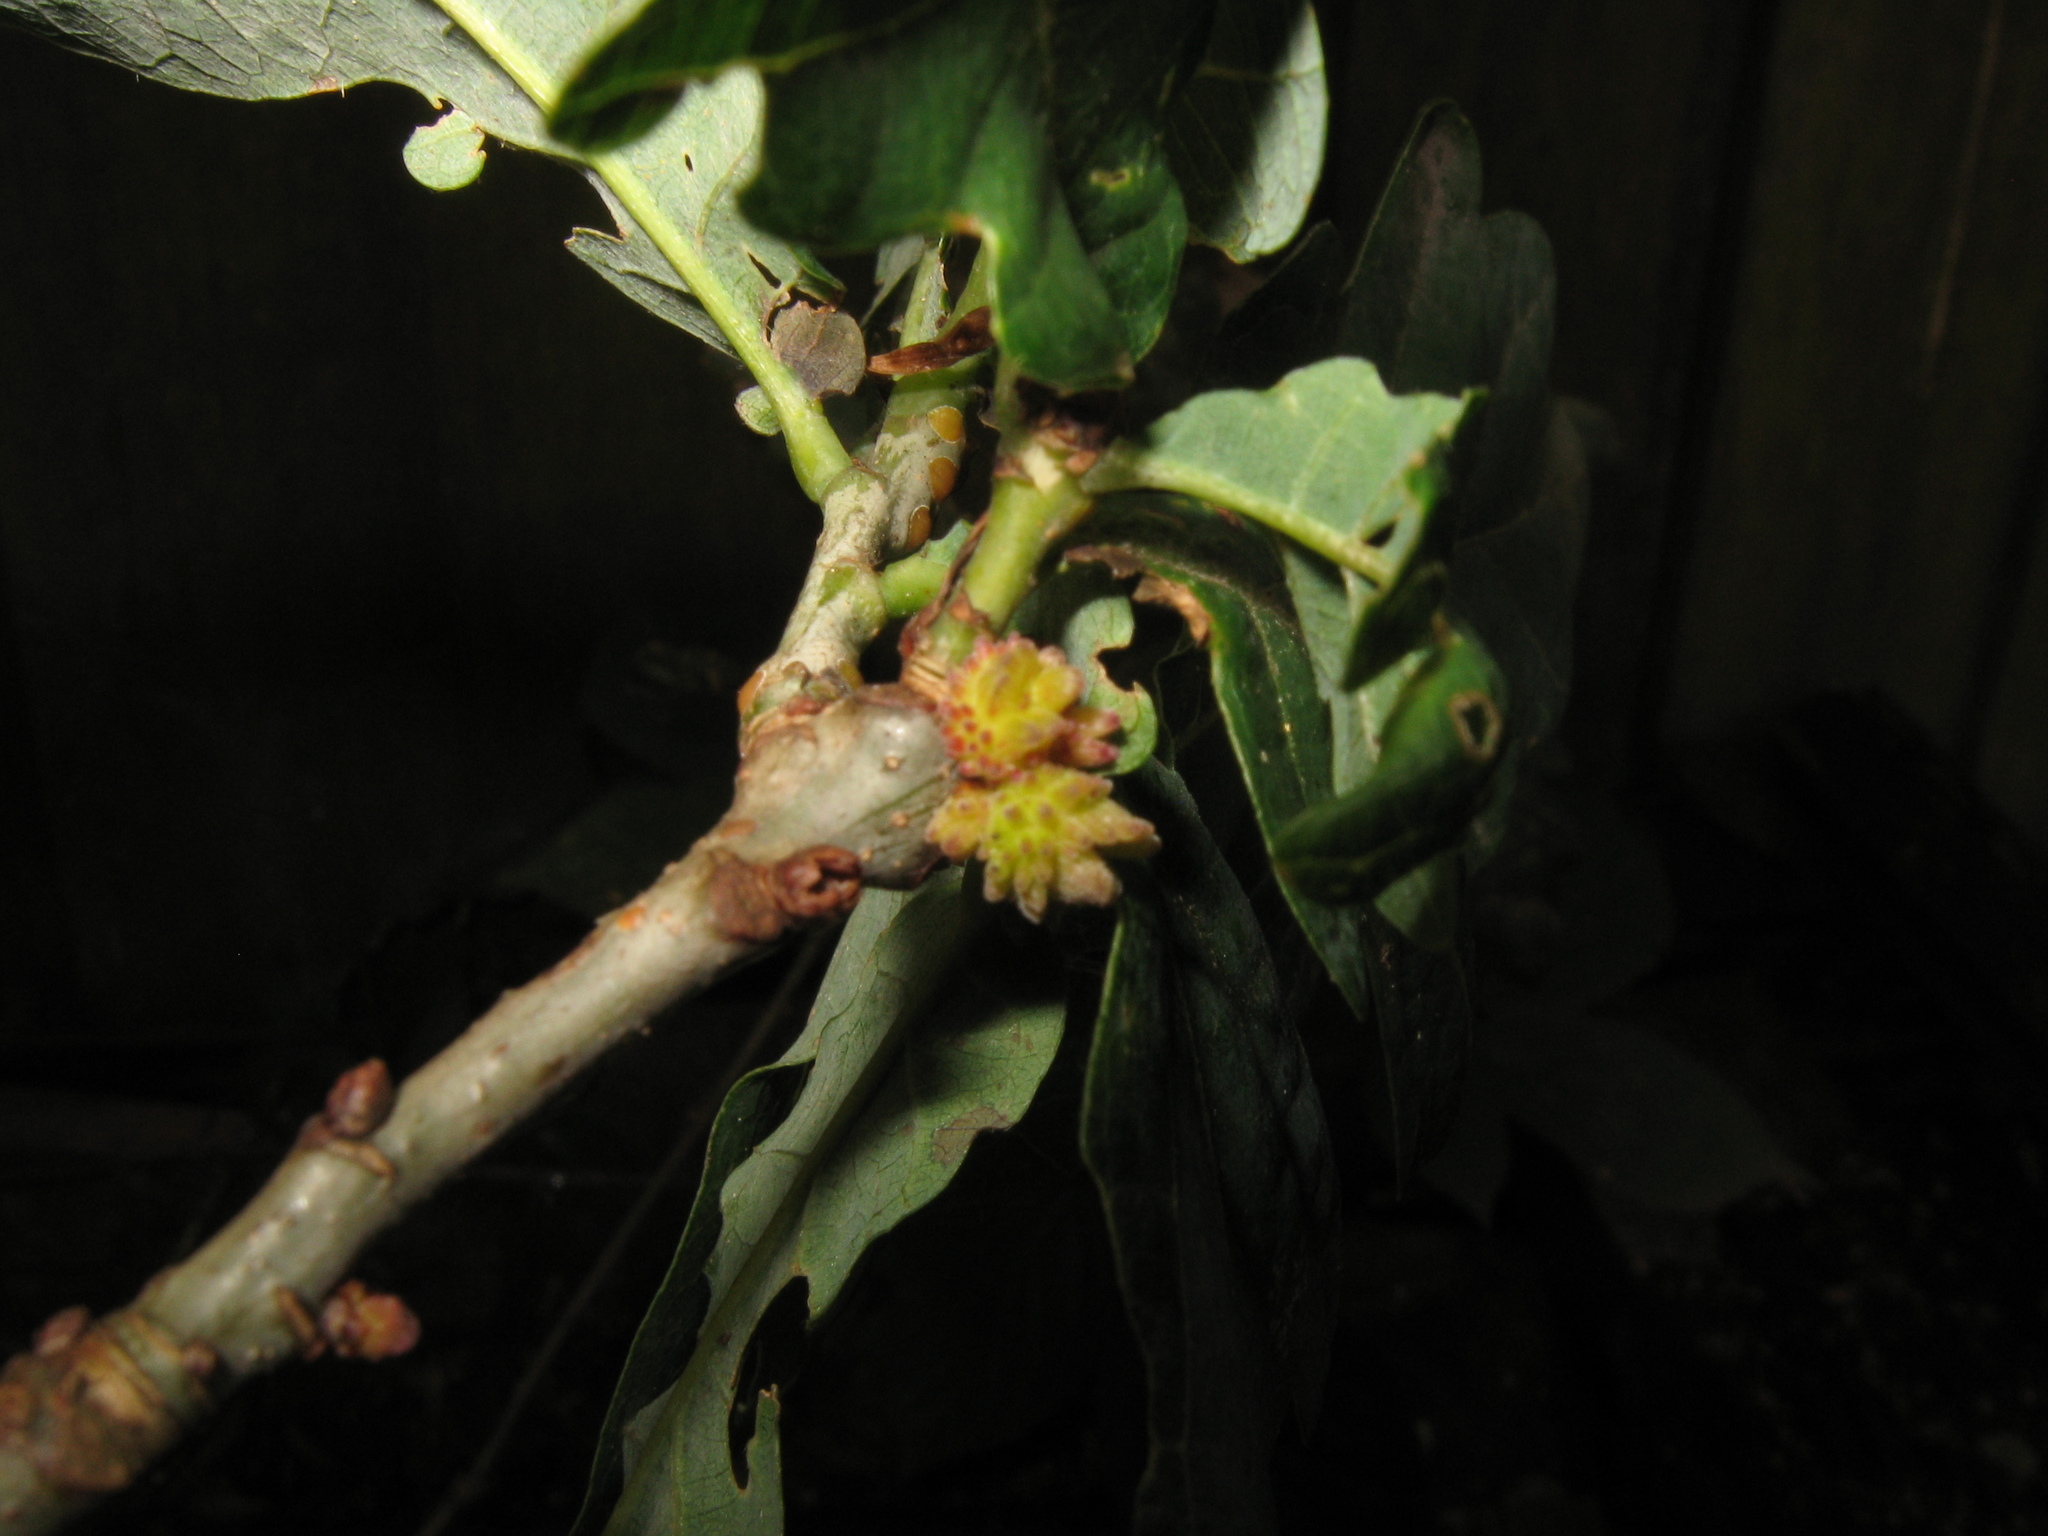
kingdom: Animalia
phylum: Arthropoda
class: Insecta
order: Hymenoptera
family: Cynipidae
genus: Andricus
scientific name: Andricus gemmeus
